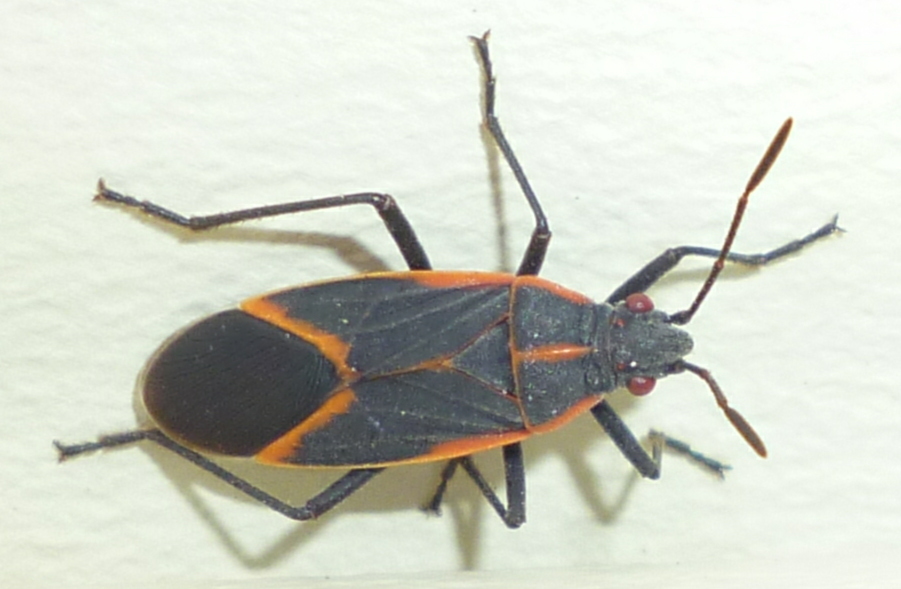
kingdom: Animalia
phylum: Arthropoda
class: Insecta
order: Hemiptera
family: Rhopalidae
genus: Boisea
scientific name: Boisea trivittata
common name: Boxelder bug
